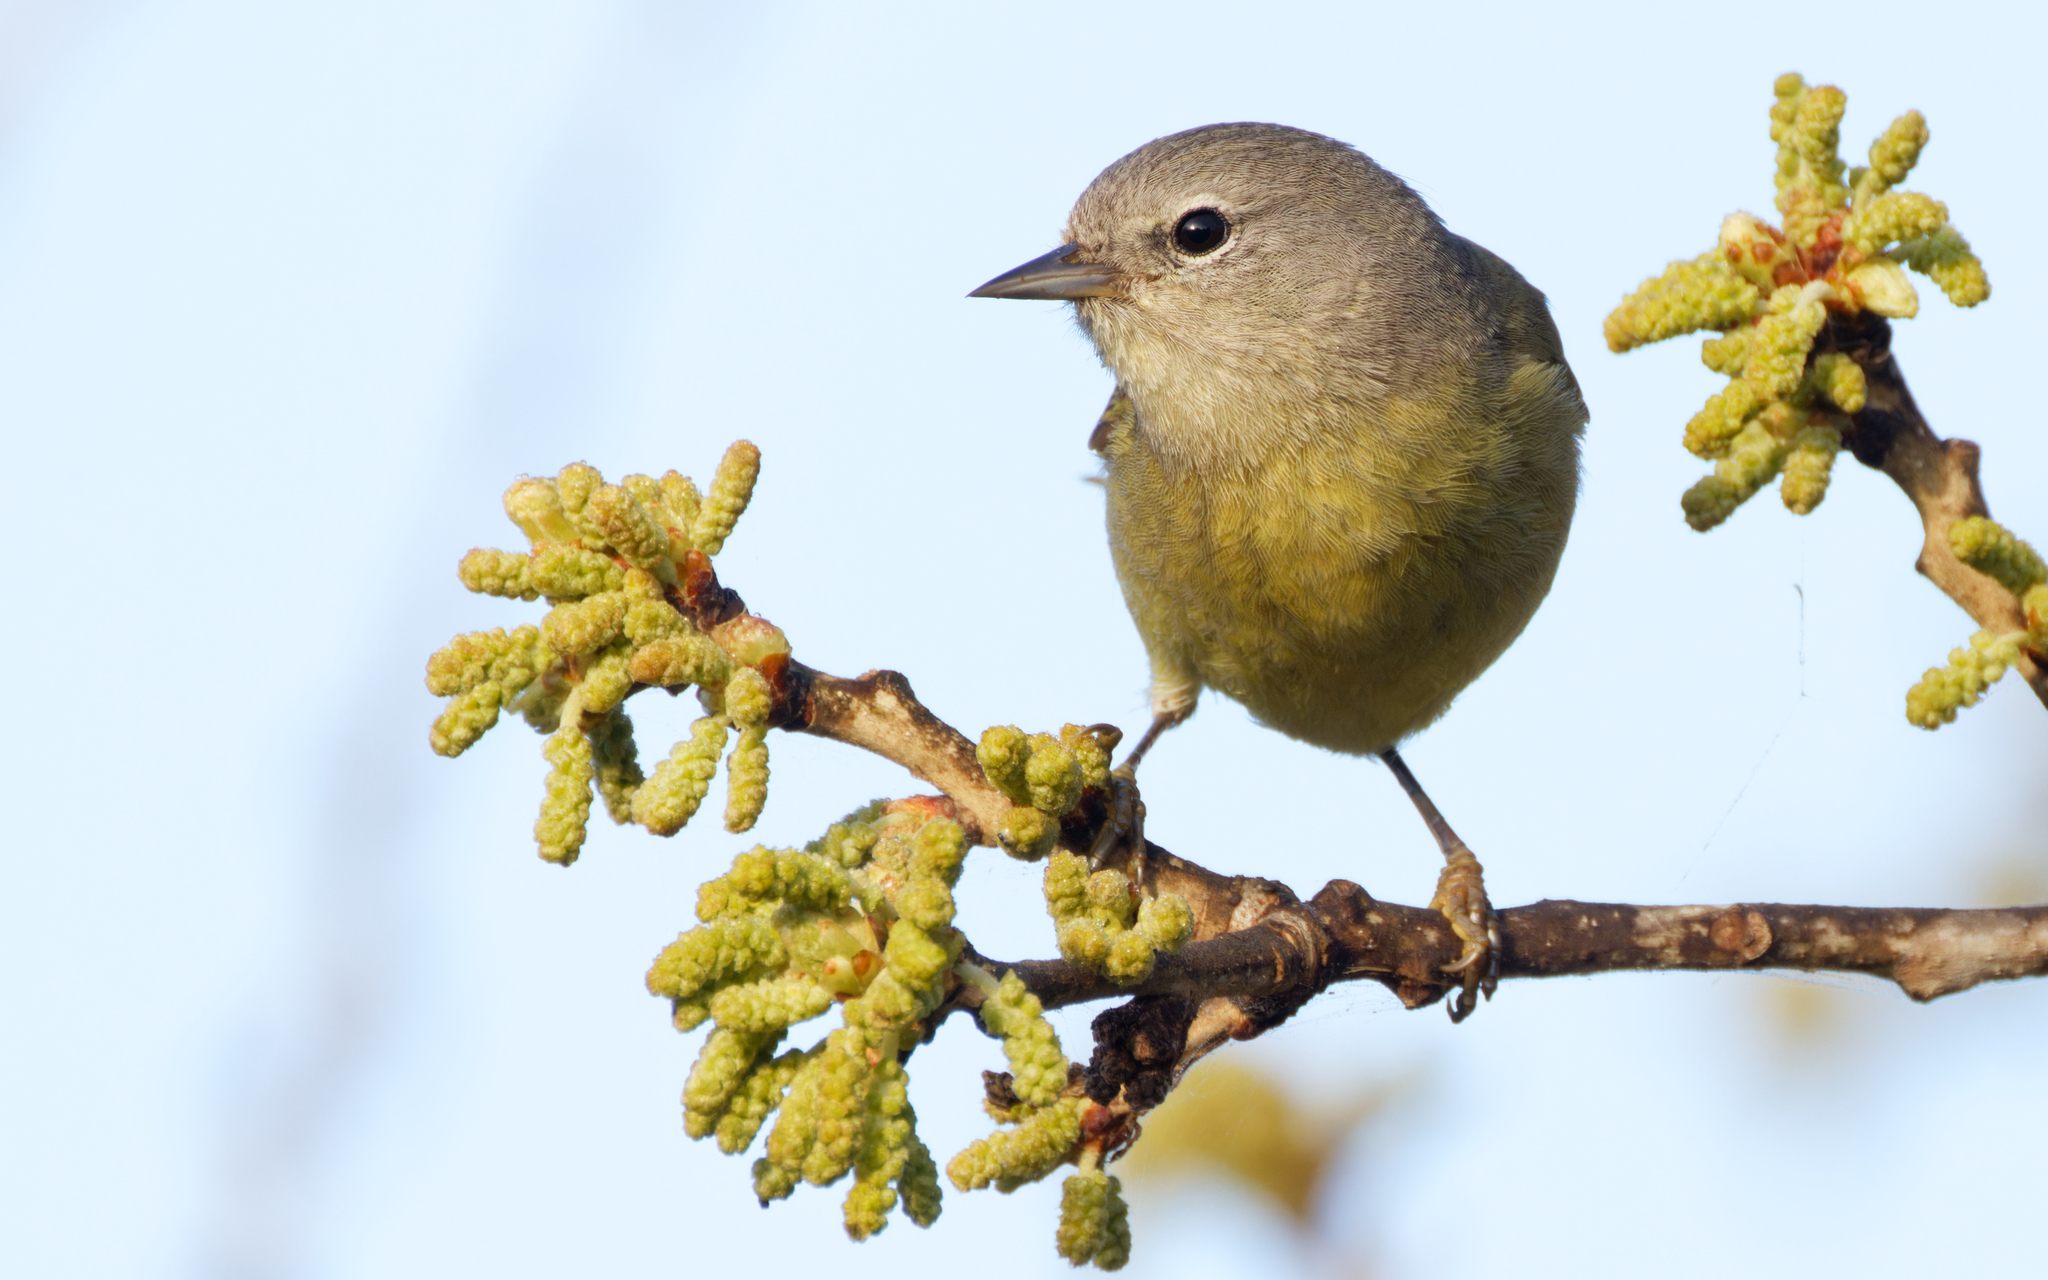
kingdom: Animalia
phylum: Chordata
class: Aves
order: Passeriformes
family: Parulidae
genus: Leiothlypis
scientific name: Leiothlypis celata
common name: Orange-crowned warbler
